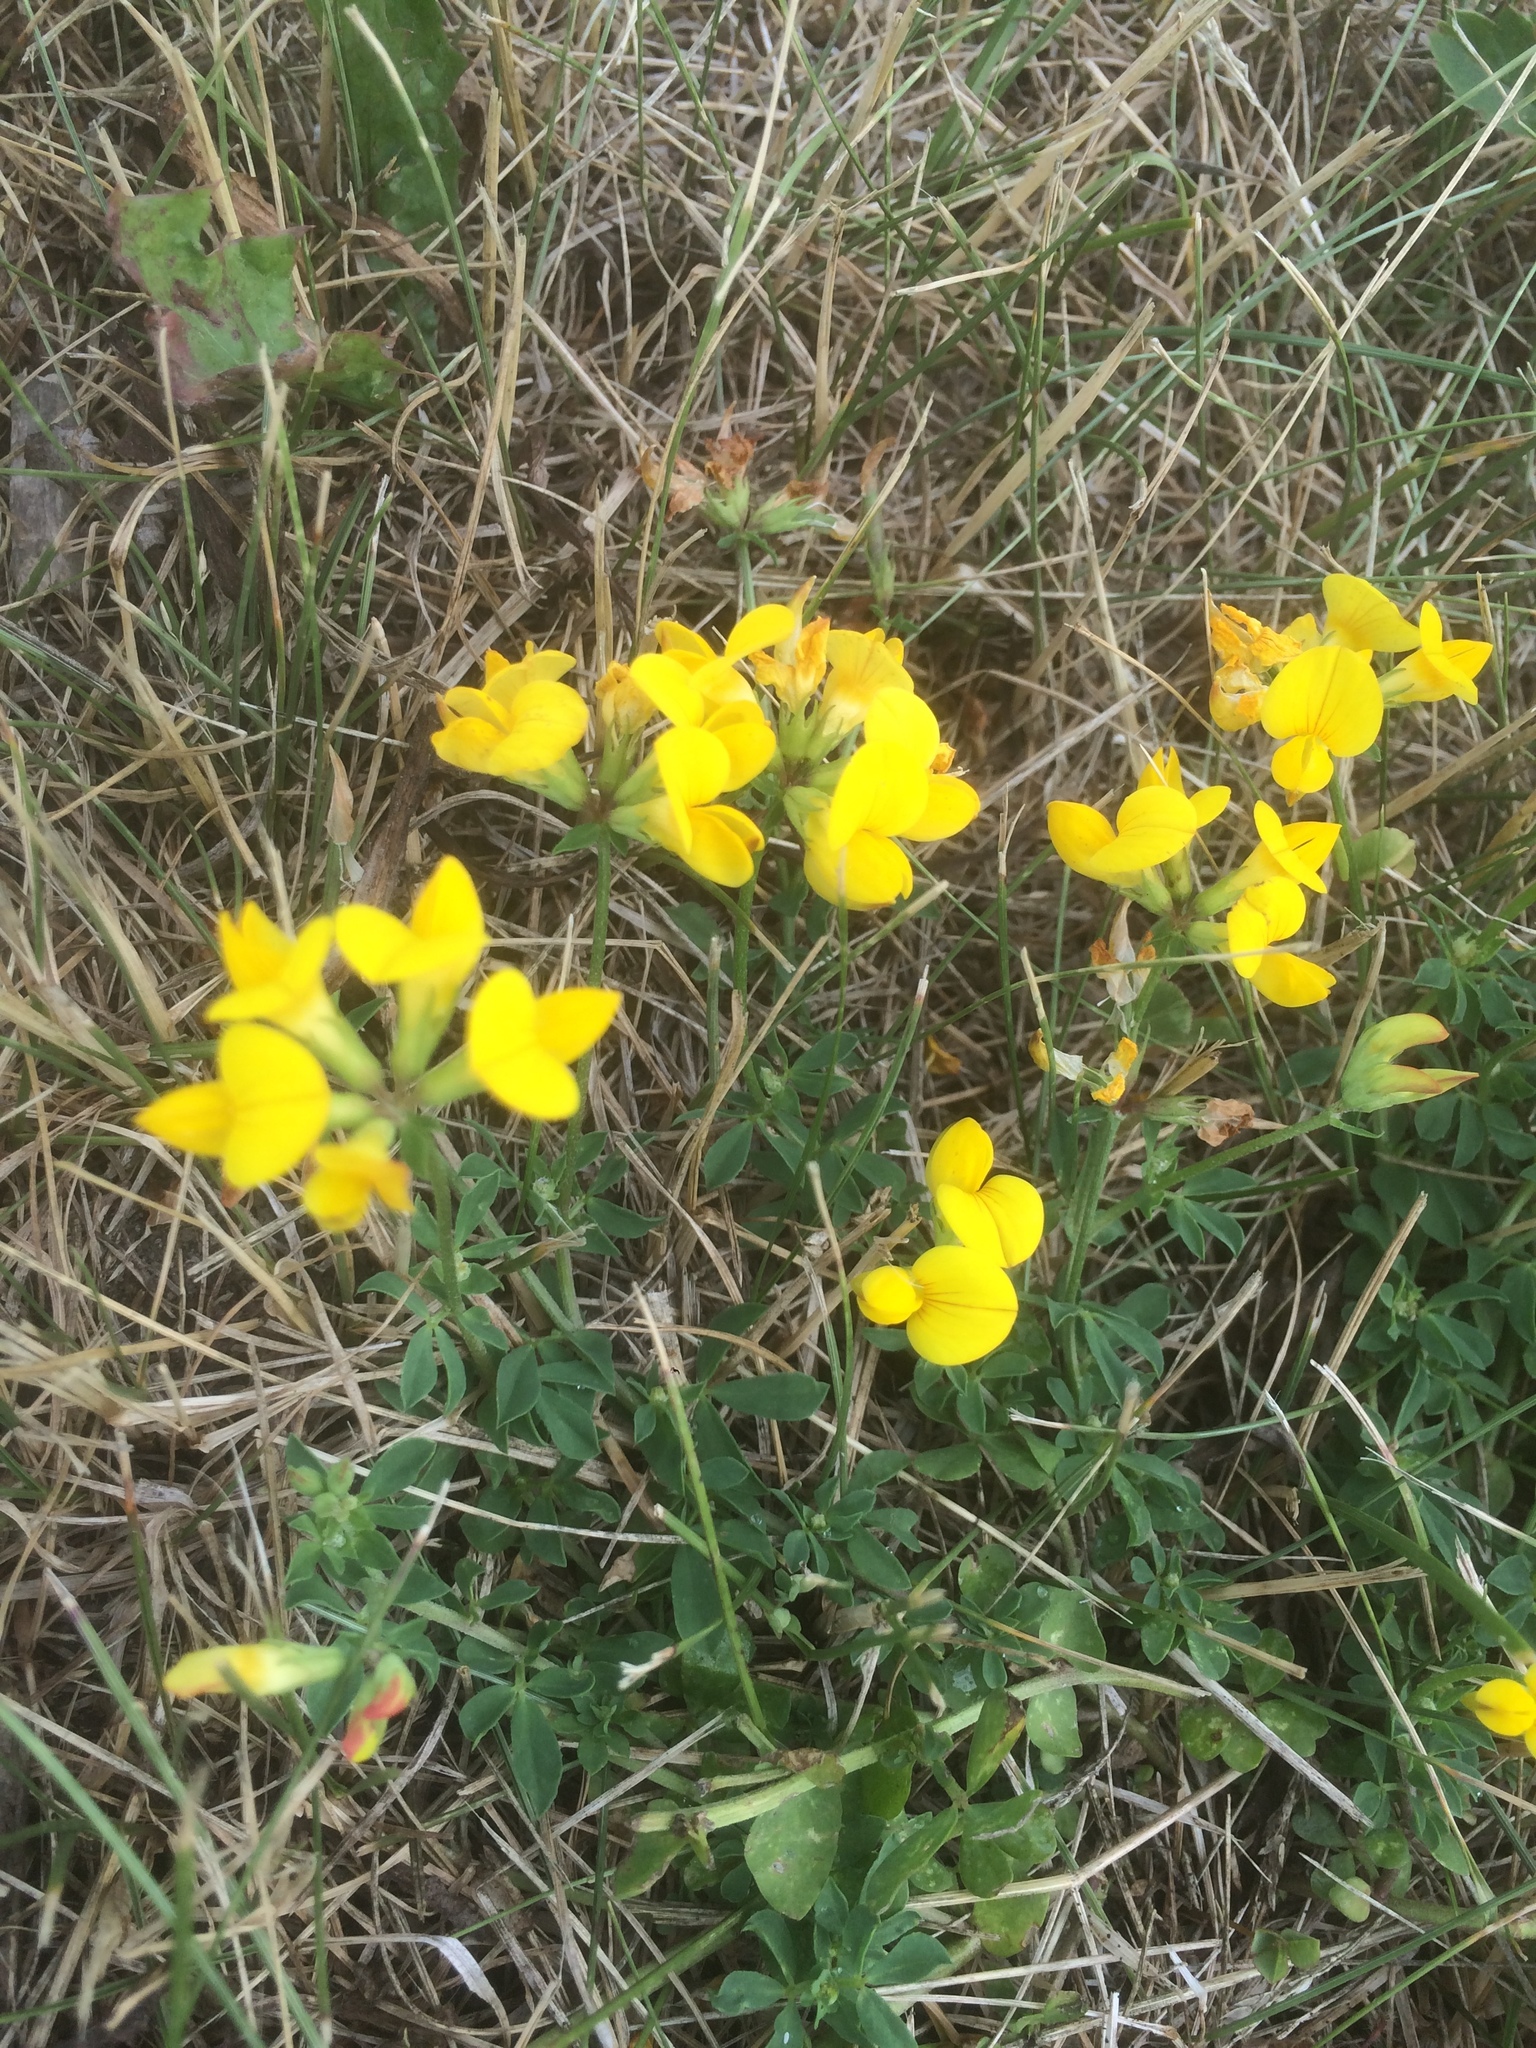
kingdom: Plantae
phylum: Tracheophyta
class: Magnoliopsida
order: Fabales
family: Fabaceae
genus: Lotus
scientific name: Lotus corniculatus
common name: Common bird's-foot-trefoil
